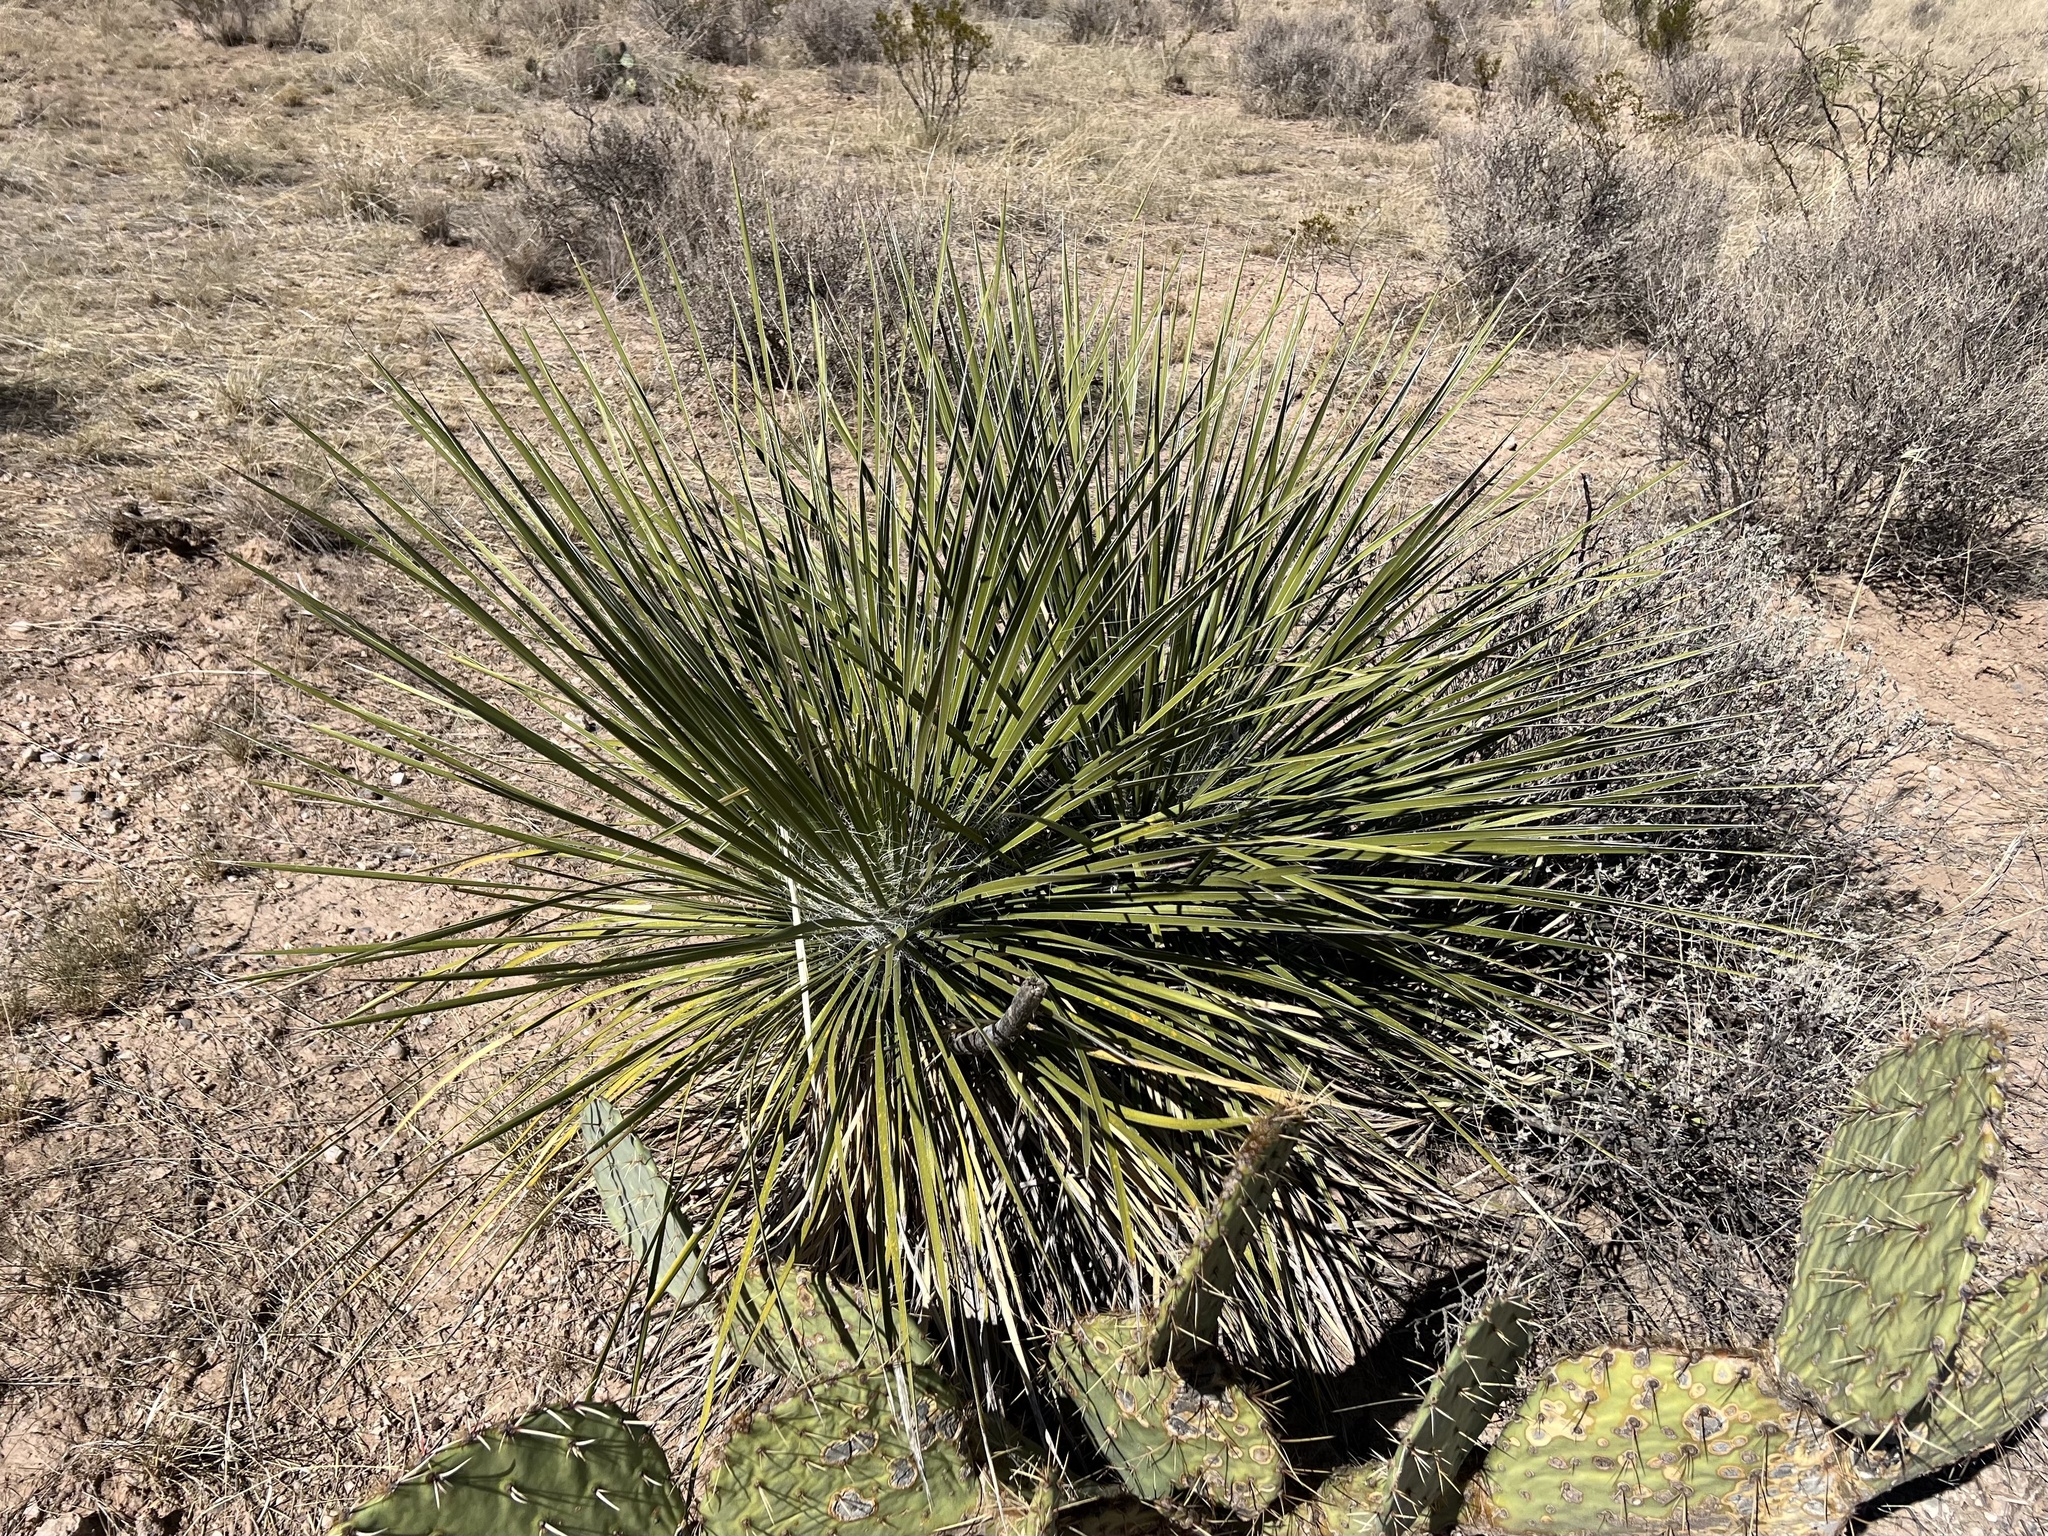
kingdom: Plantae
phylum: Tracheophyta
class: Liliopsida
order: Asparagales
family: Asparagaceae
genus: Yucca
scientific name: Yucca elata
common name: Palmella
